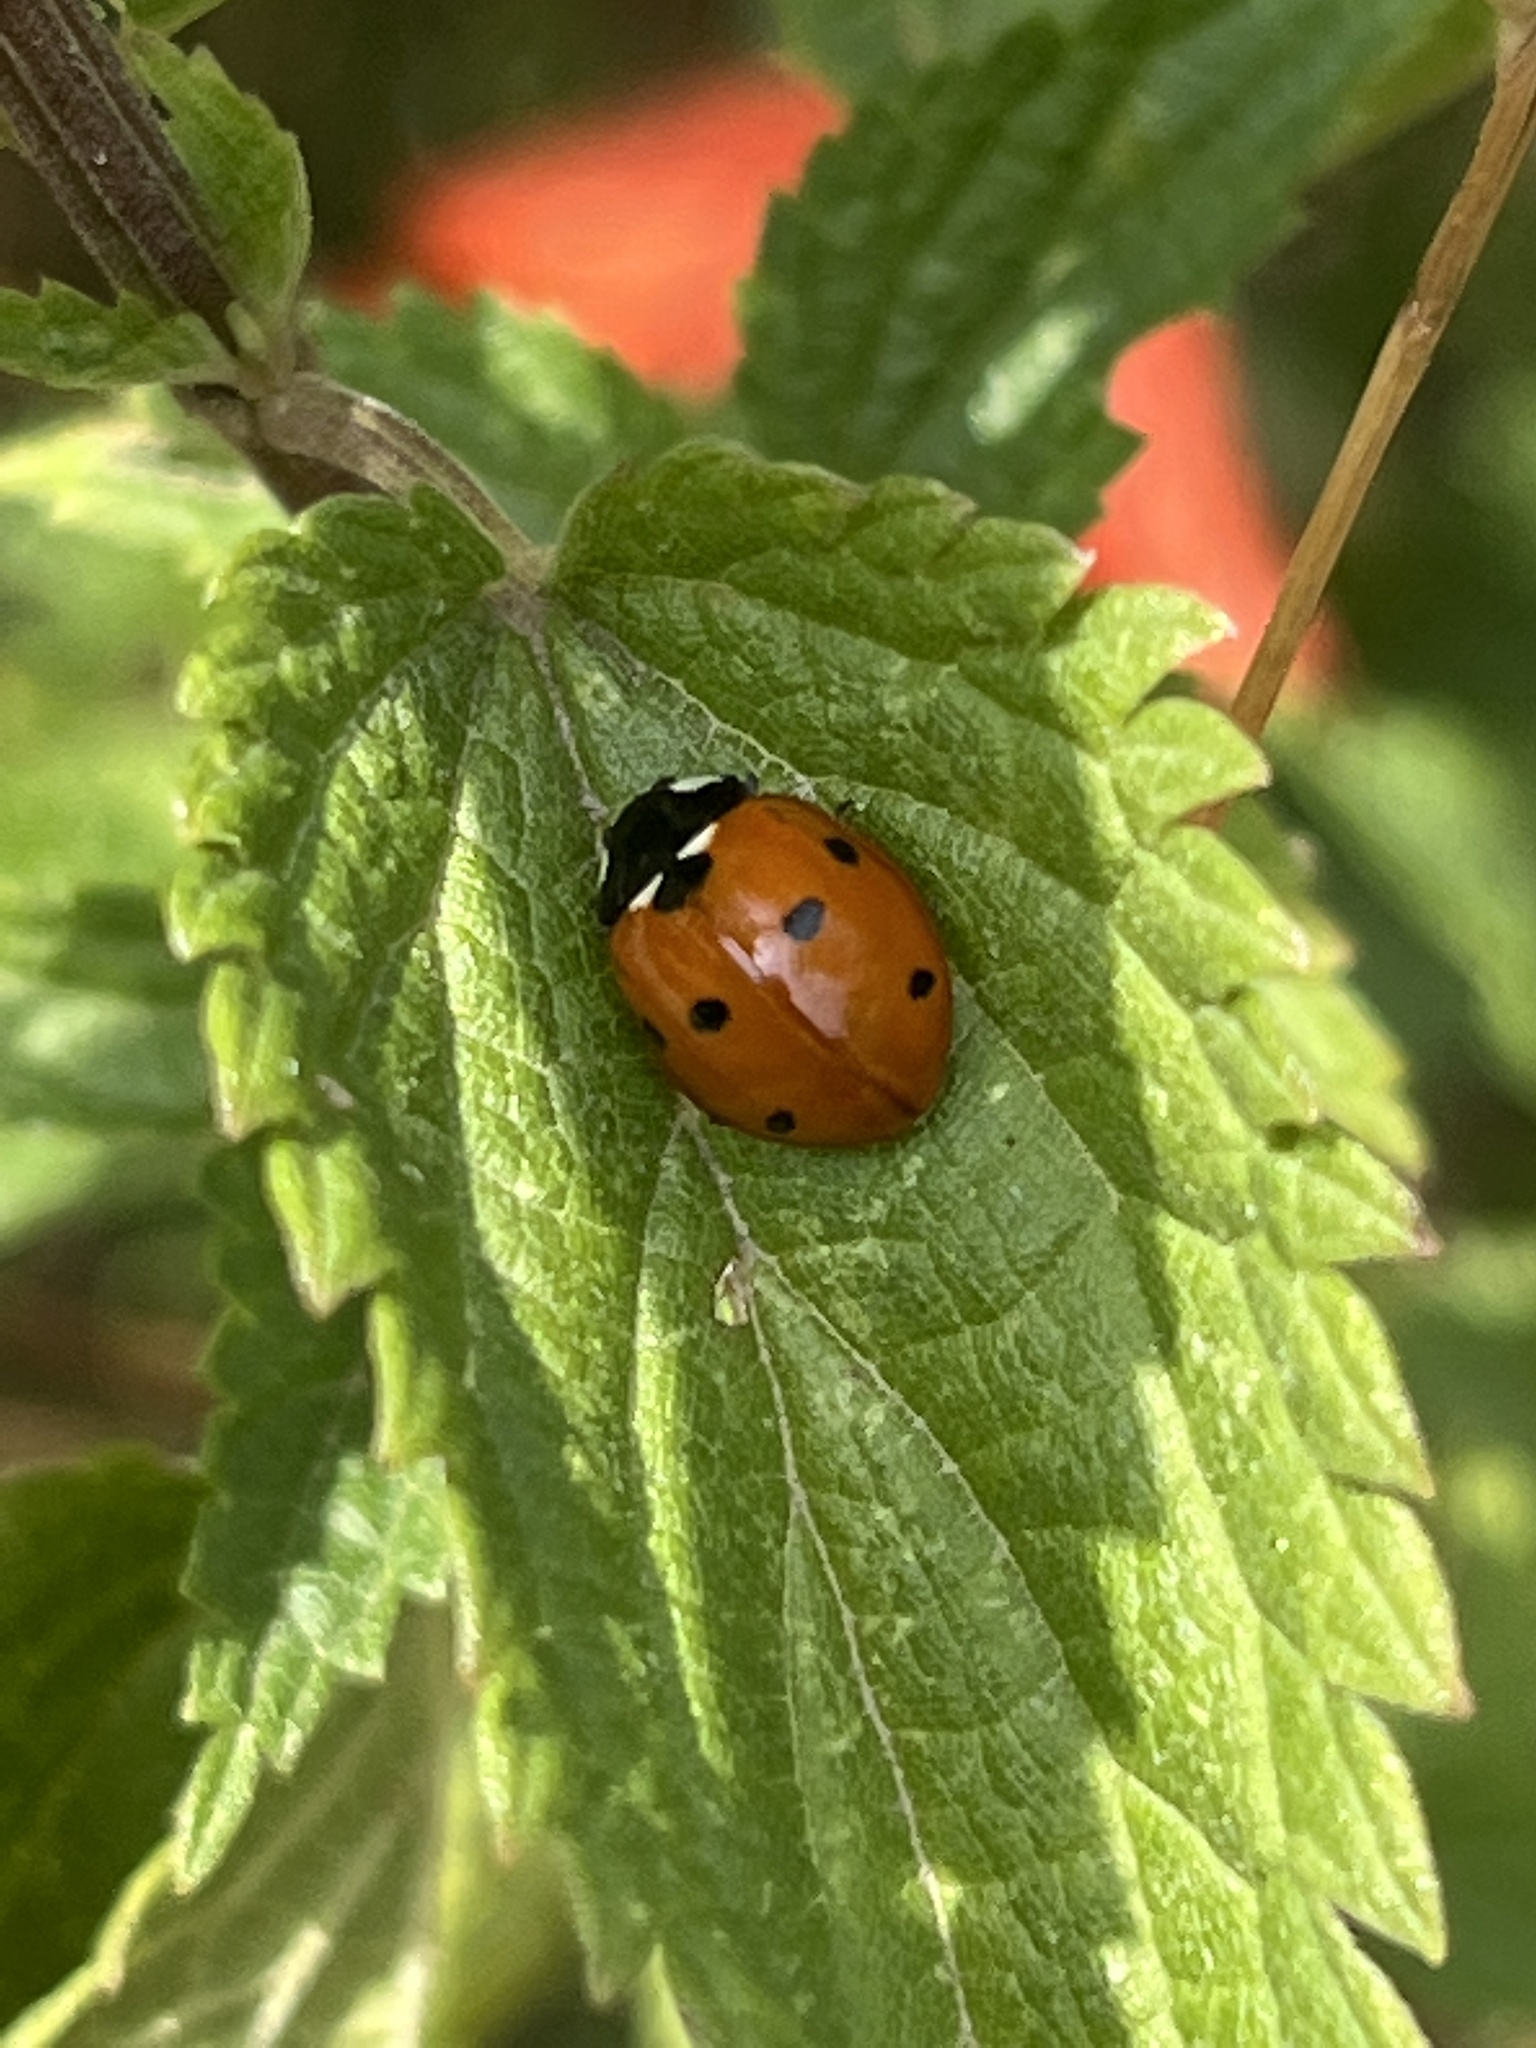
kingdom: Animalia
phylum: Arthropoda
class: Insecta
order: Coleoptera
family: Coccinellidae
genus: Coccinella
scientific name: Coccinella septempunctata
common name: Sevenspotted lady beetle
